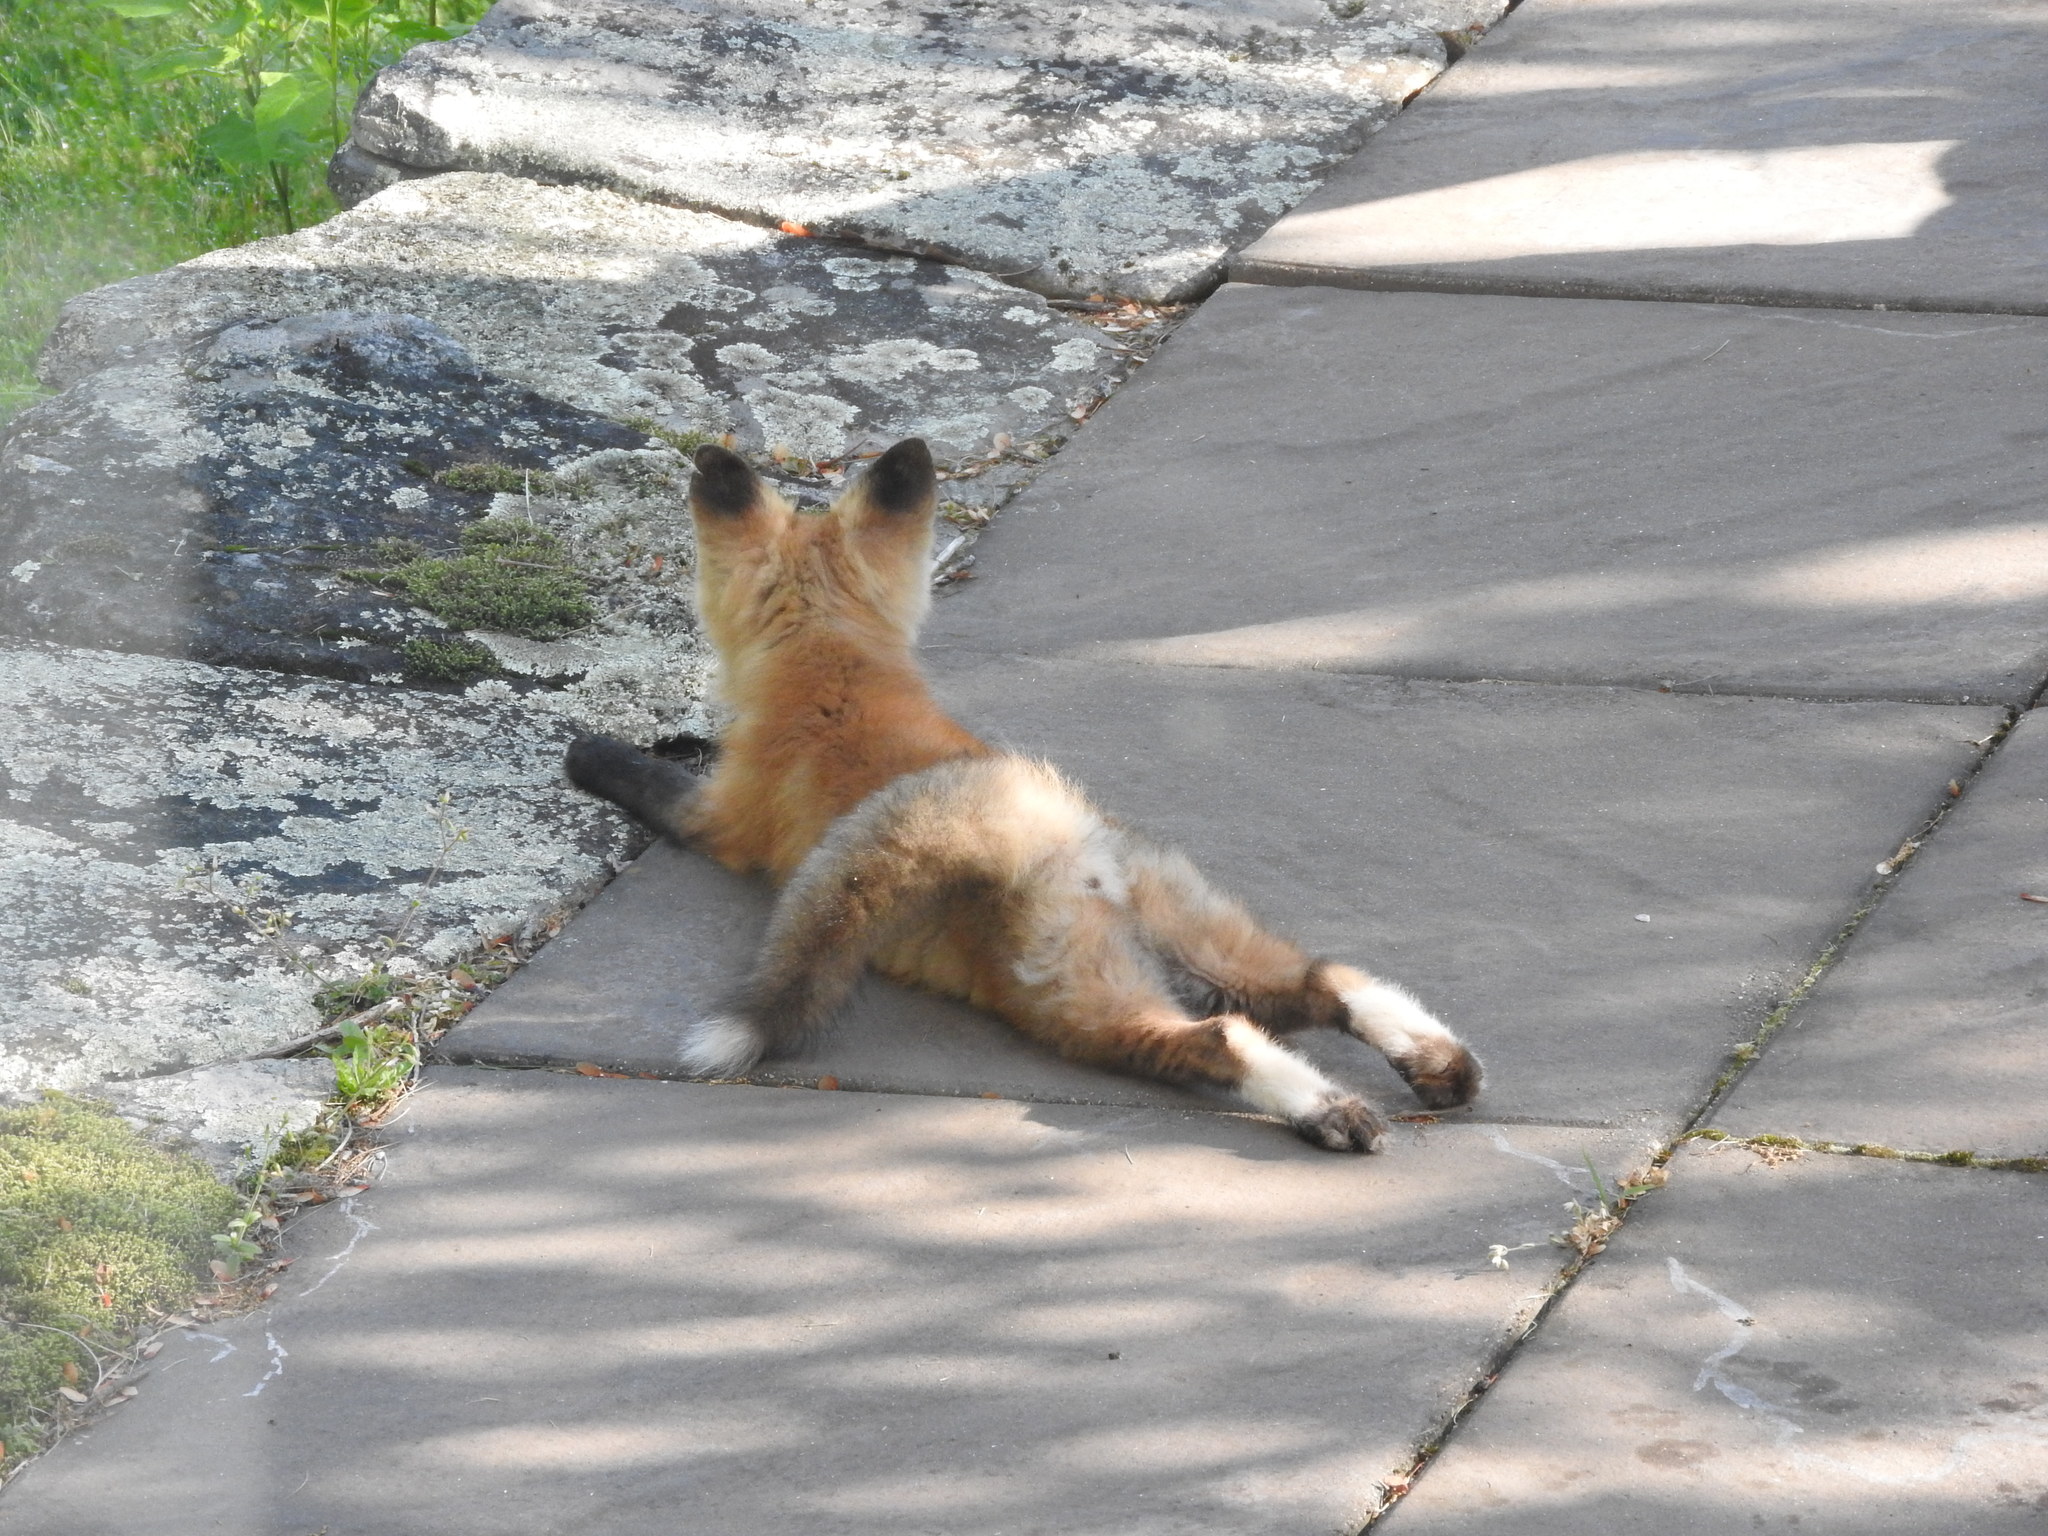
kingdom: Animalia
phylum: Chordata
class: Mammalia
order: Carnivora
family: Canidae
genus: Vulpes
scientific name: Vulpes vulpes
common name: Red fox
